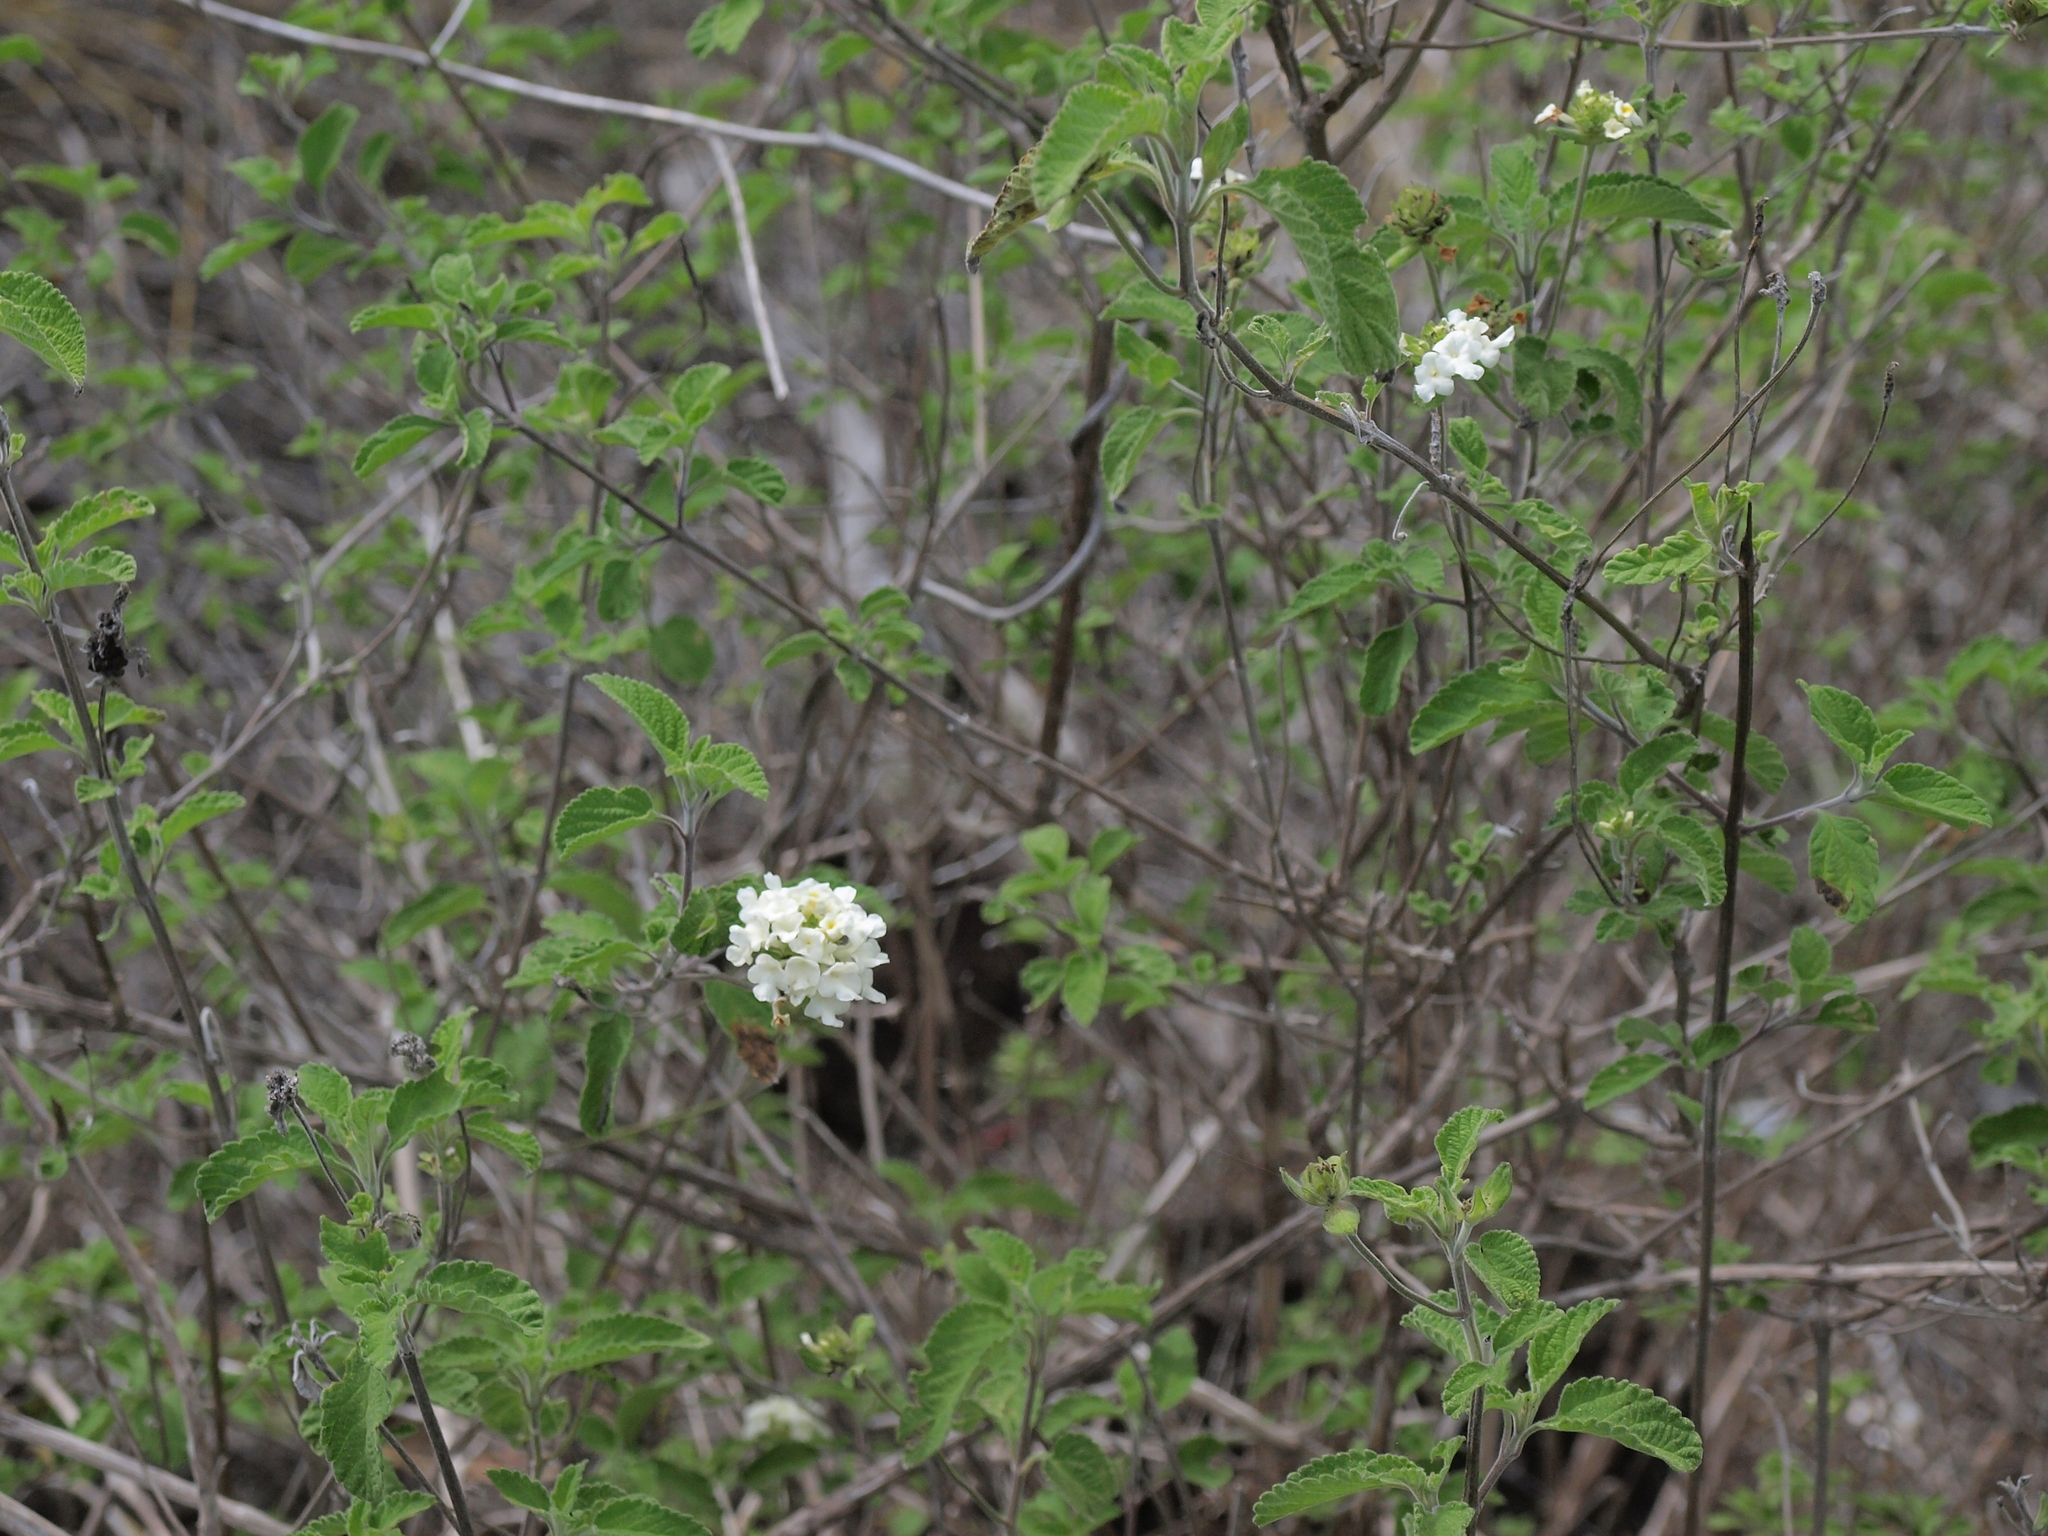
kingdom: Plantae
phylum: Tracheophyta
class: Magnoliopsida
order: Lamiales
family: Verbenaceae
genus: Lantana
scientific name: Lantana peduncularis
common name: Galapagos lantana
